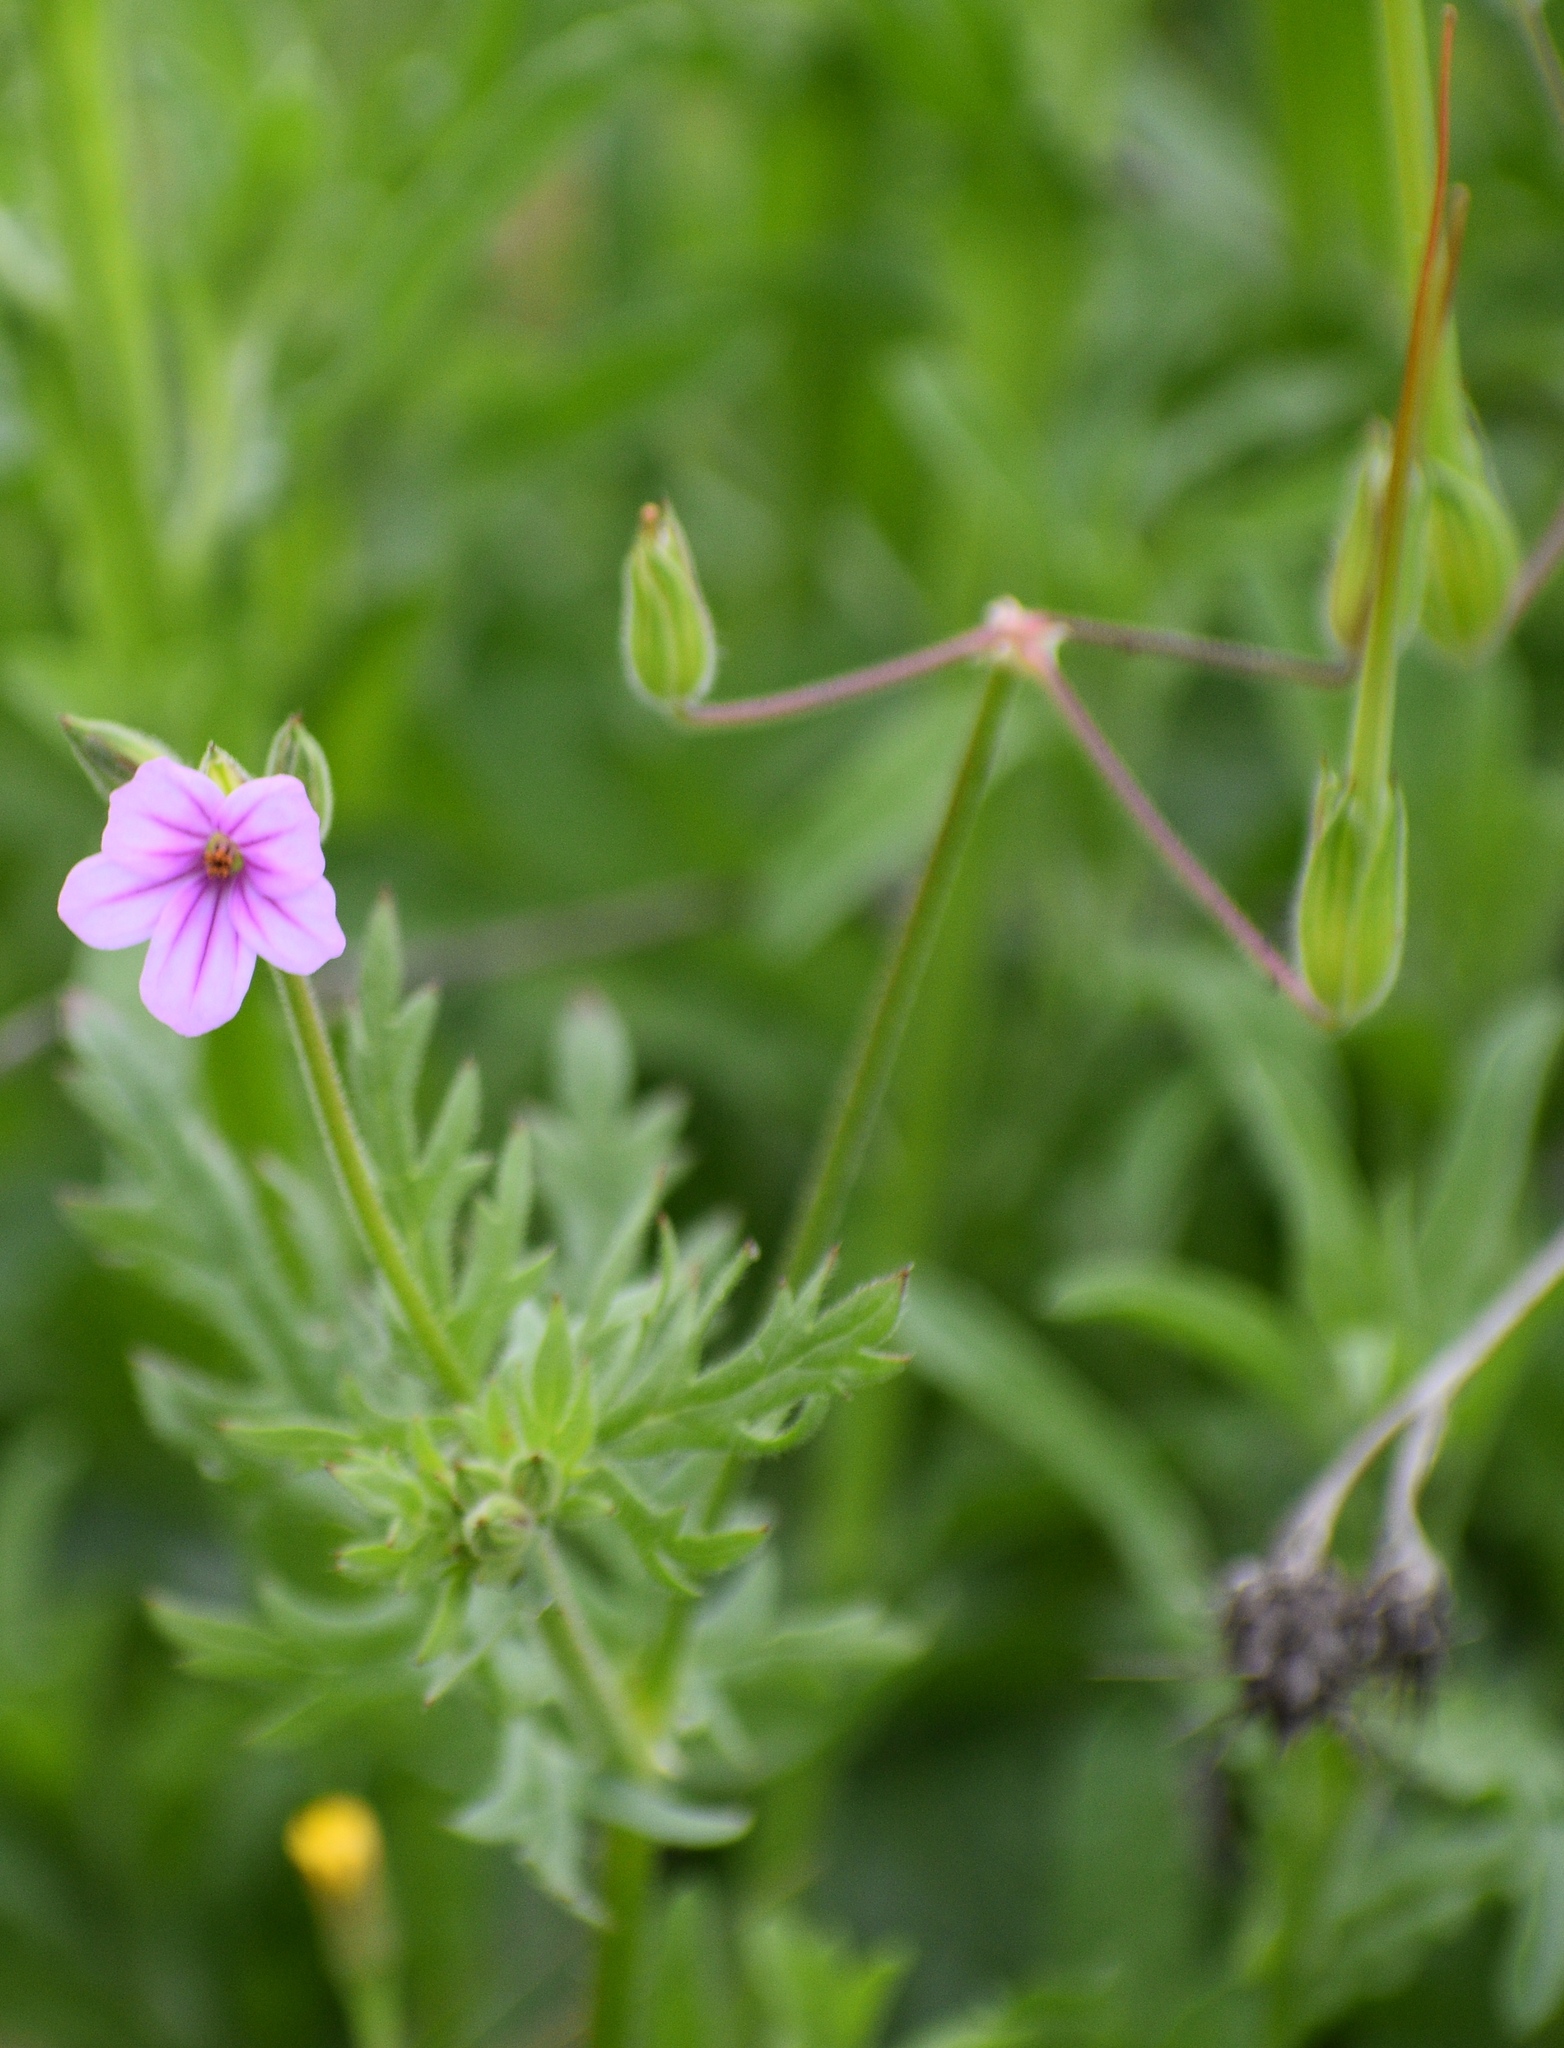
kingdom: Plantae
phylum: Tracheophyta
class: Magnoliopsida
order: Geraniales
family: Geraniaceae
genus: Erodium
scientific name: Erodium botrys
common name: Mediterranean stork's-bill
